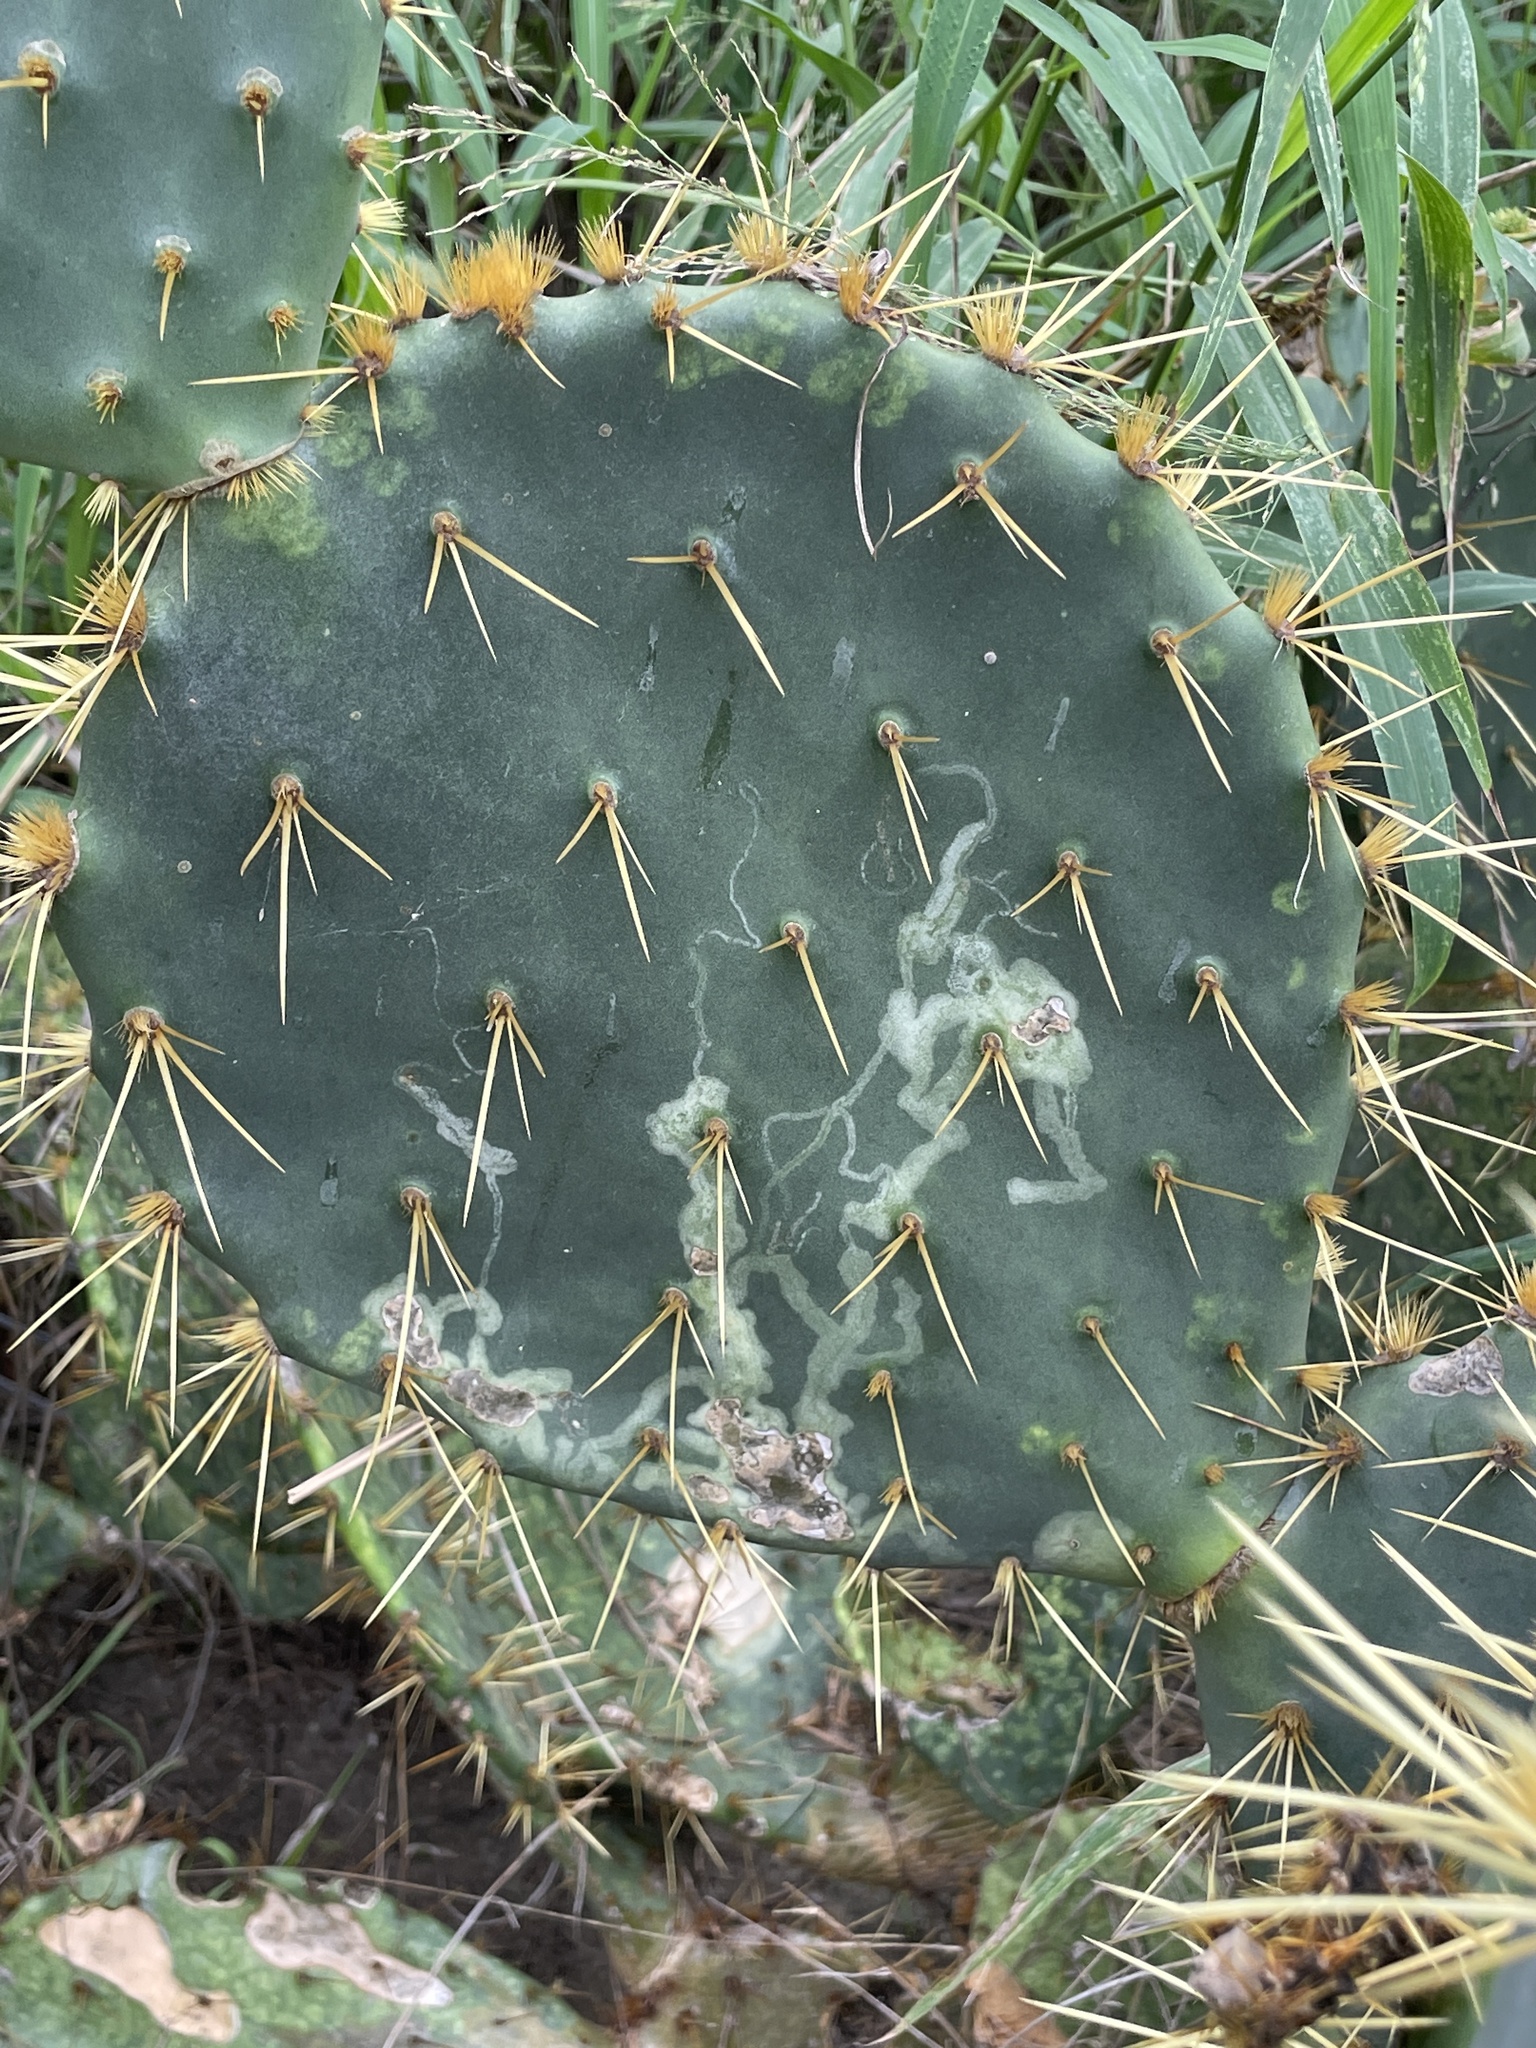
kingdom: Animalia
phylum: Arthropoda
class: Insecta
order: Lepidoptera
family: Gracillariidae
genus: Marmara
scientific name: Marmara opuntiella
